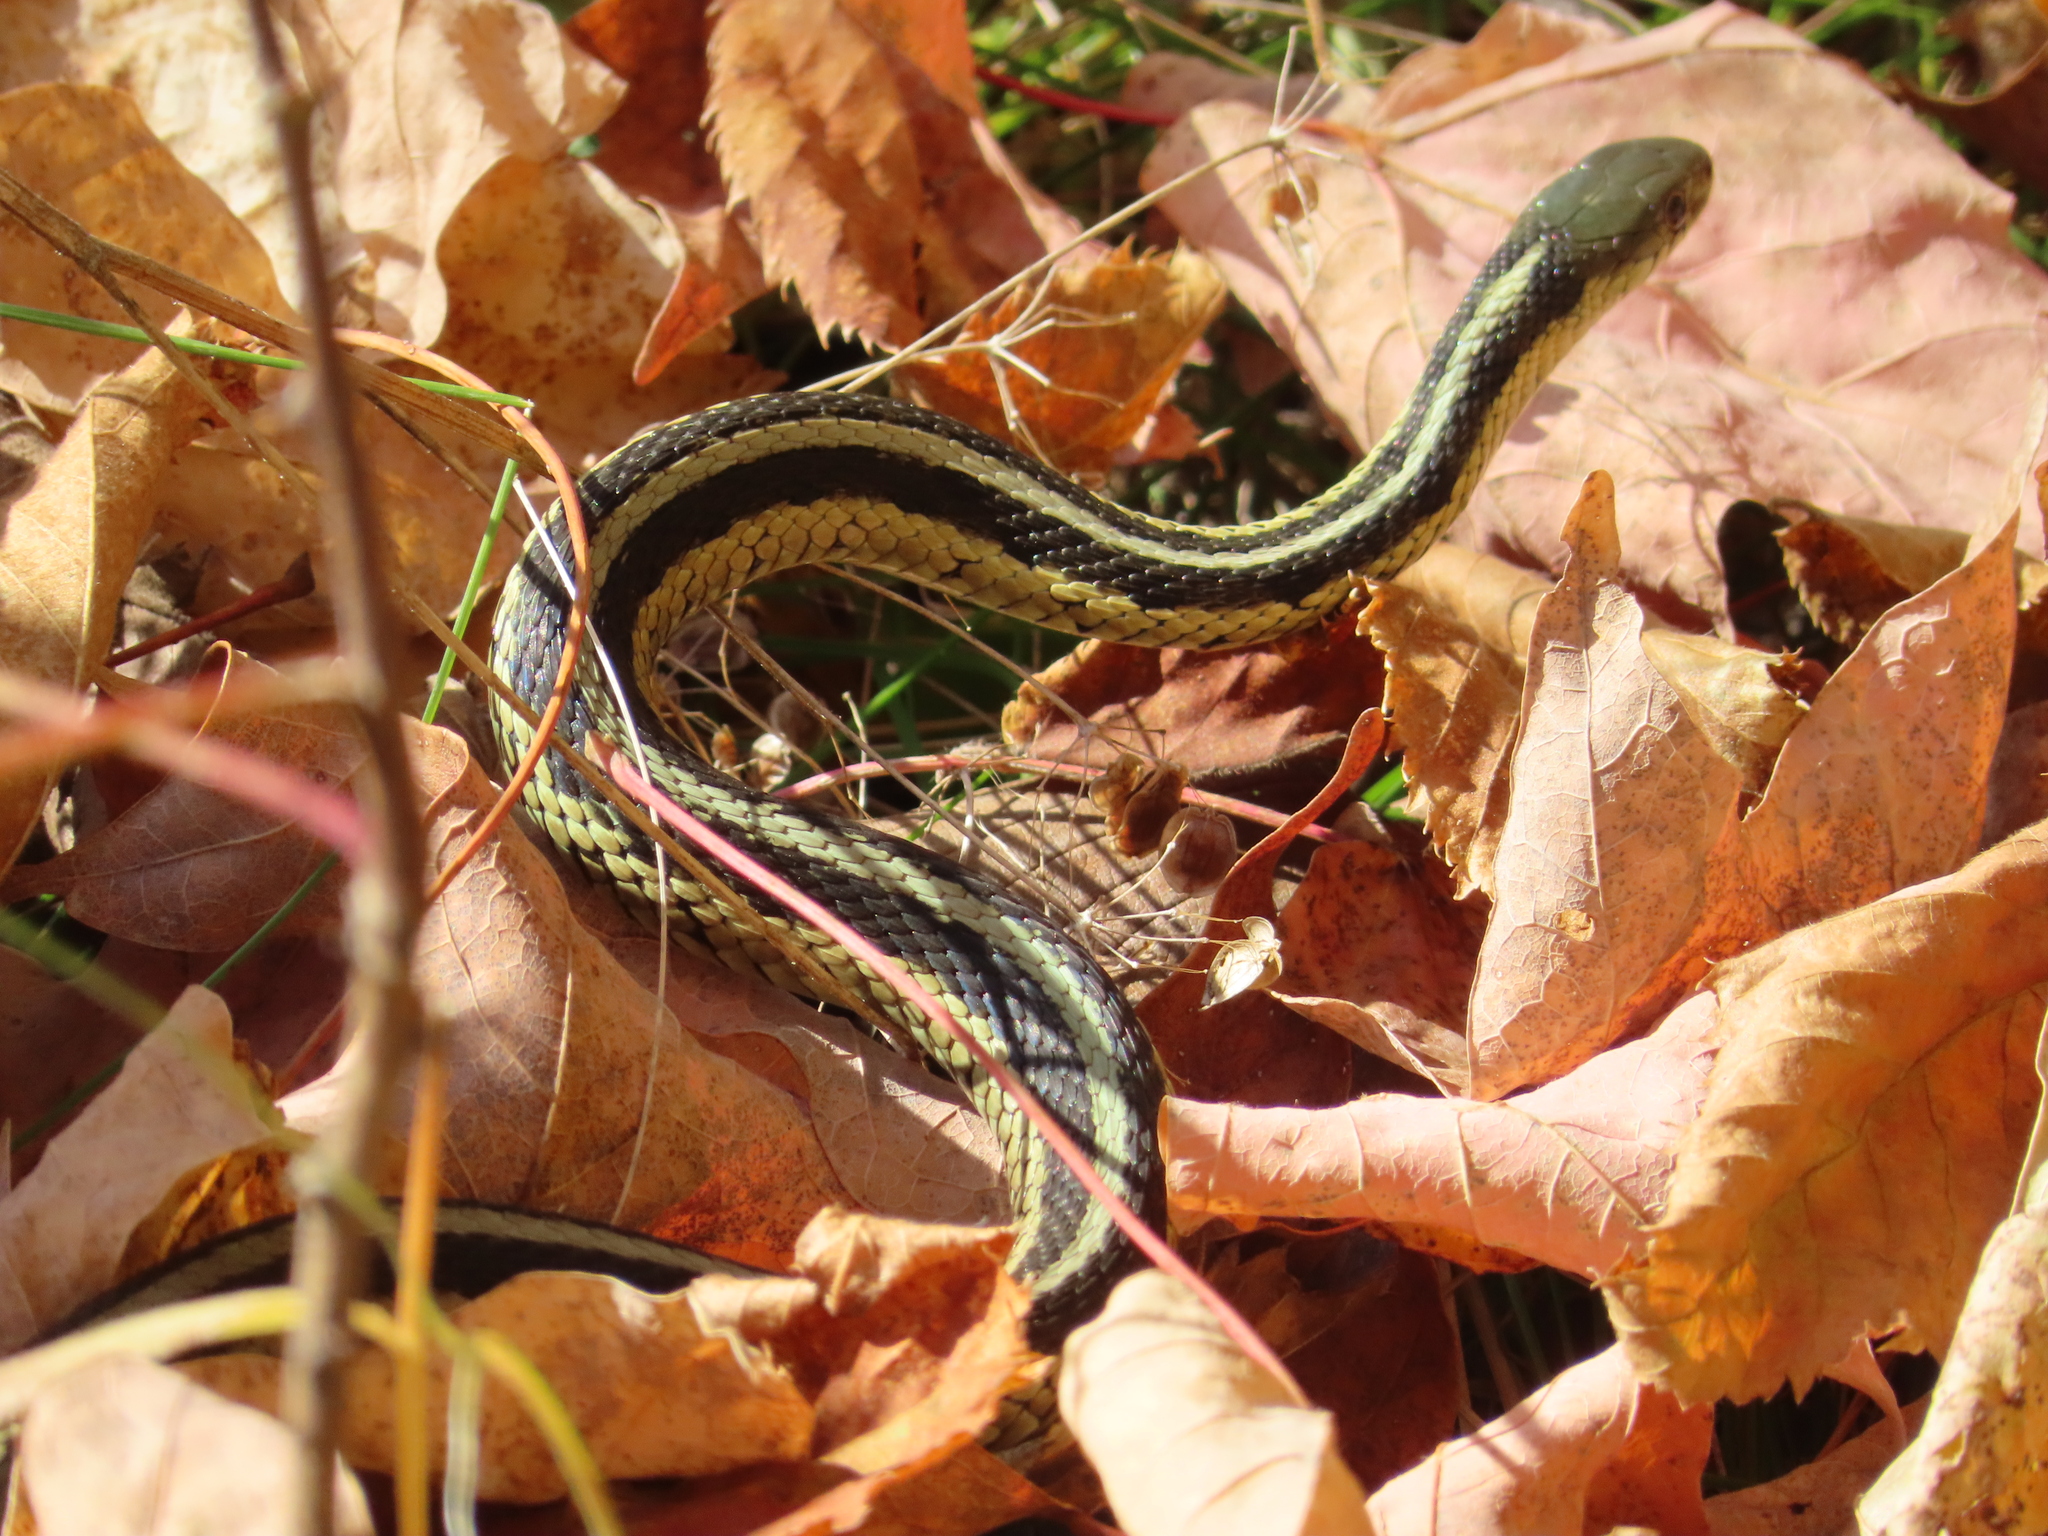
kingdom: Animalia
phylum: Chordata
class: Squamata
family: Colubridae
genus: Thamnophis
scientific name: Thamnophis sirtalis
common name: Common garter snake
